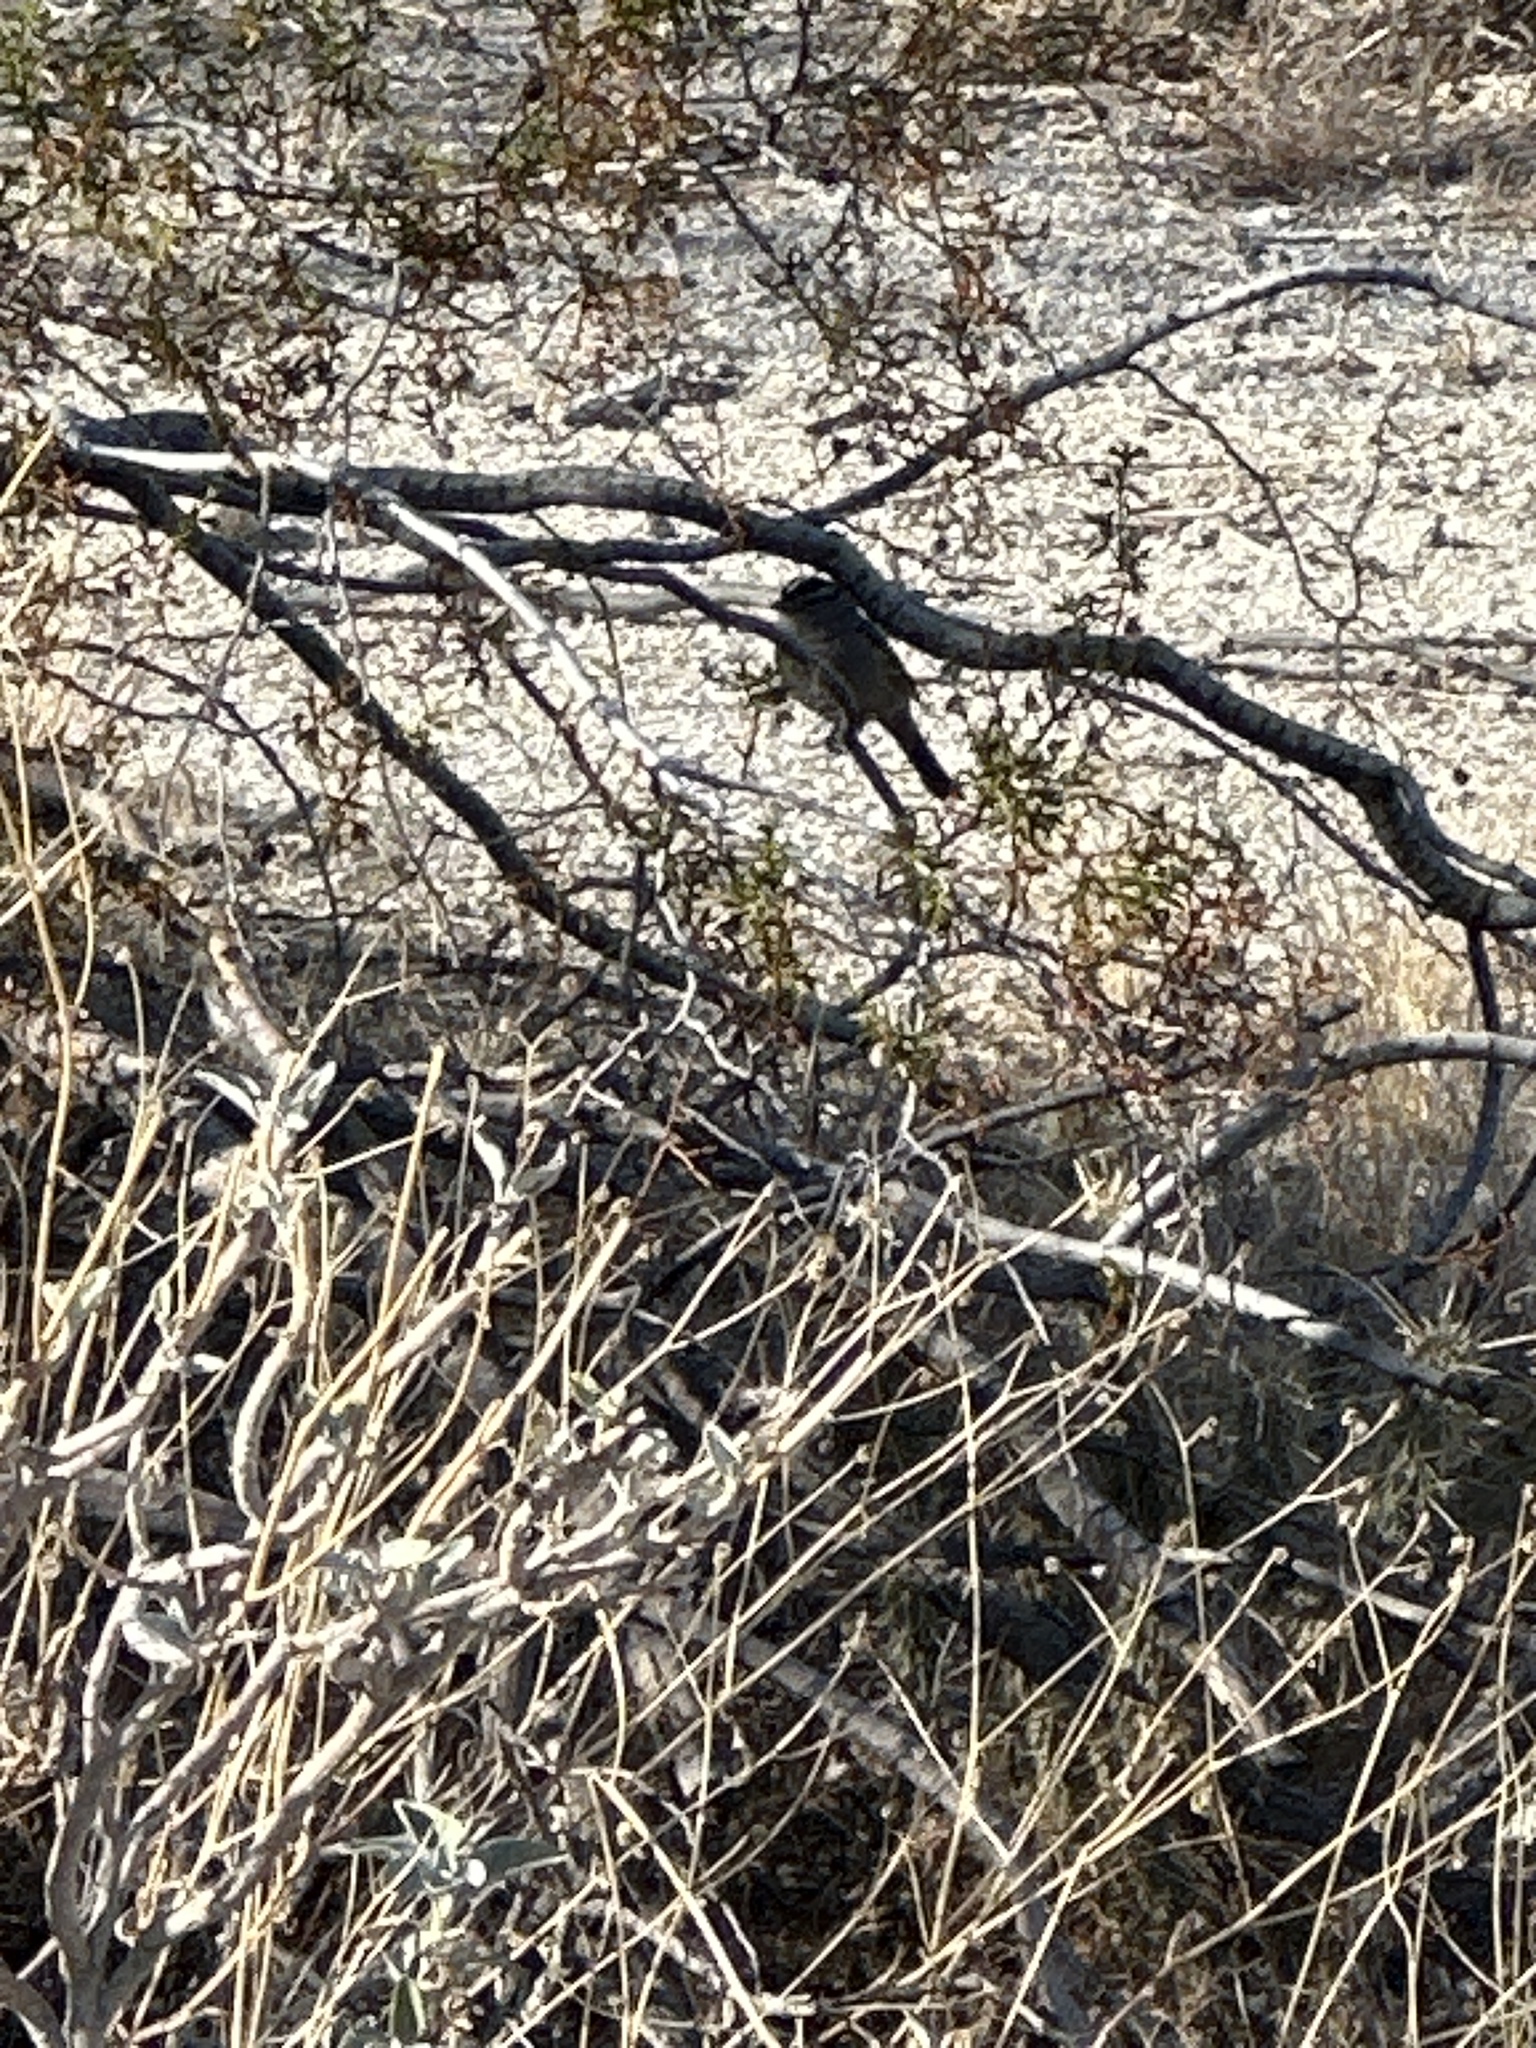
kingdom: Animalia
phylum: Chordata
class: Aves
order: Passeriformes
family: Passerellidae
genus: Zonotrichia
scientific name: Zonotrichia leucophrys
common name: White-crowned sparrow
